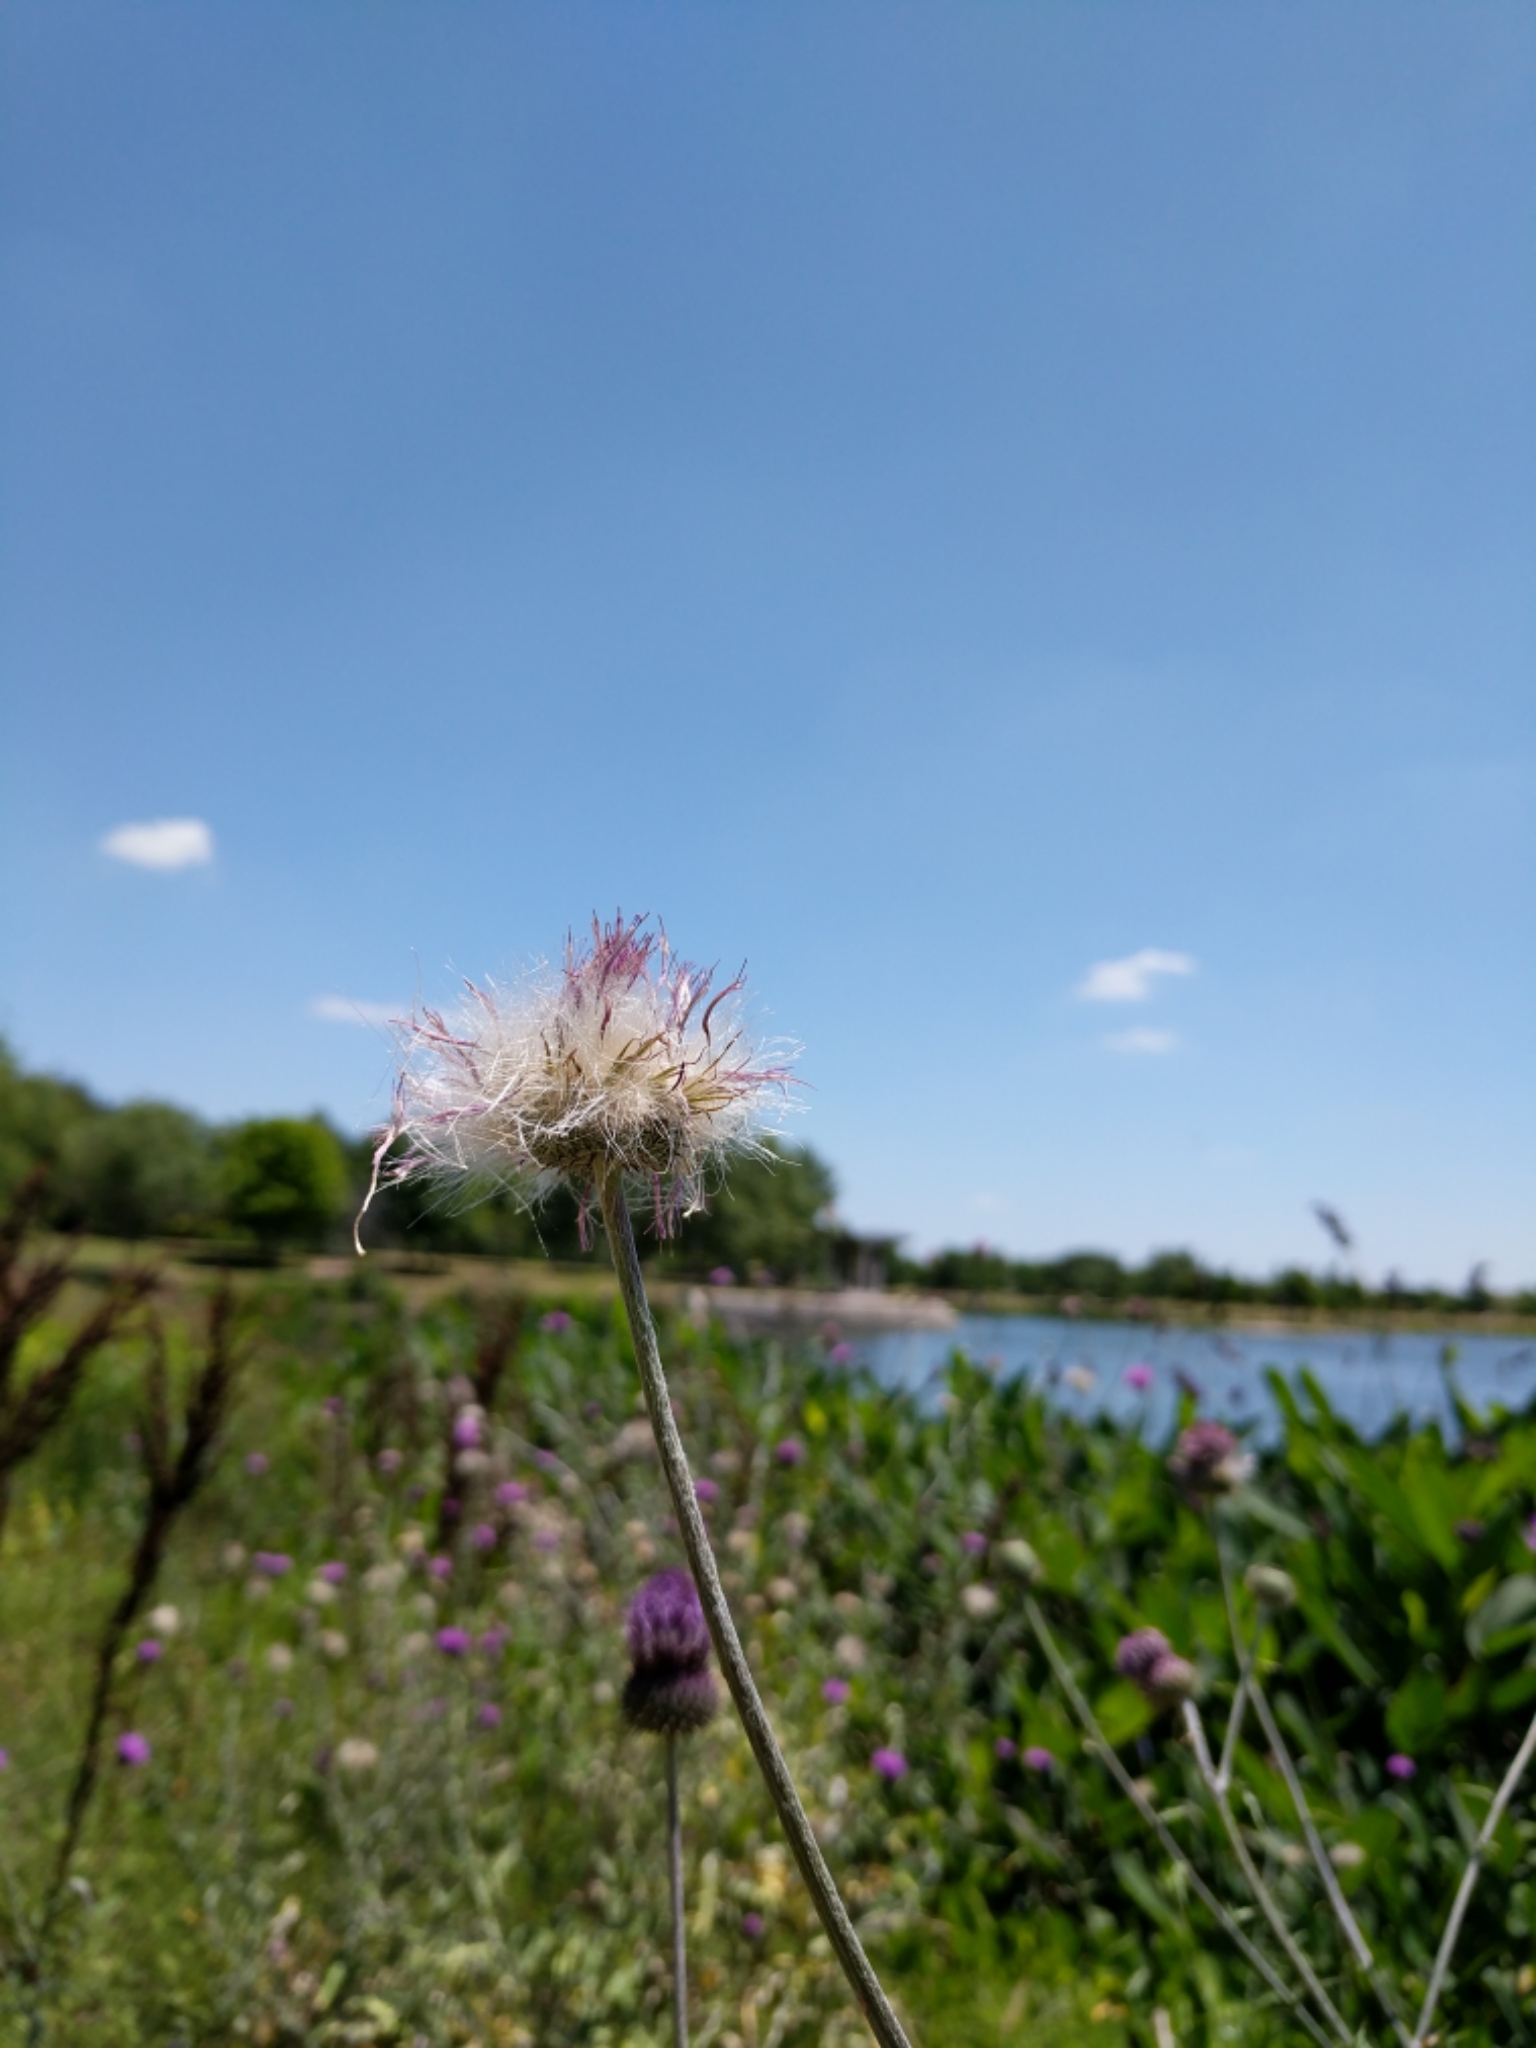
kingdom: Plantae
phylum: Tracheophyta
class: Magnoliopsida
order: Asterales
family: Asteraceae
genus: Cirsium
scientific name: Cirsium texanum
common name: Texas purple thistle
